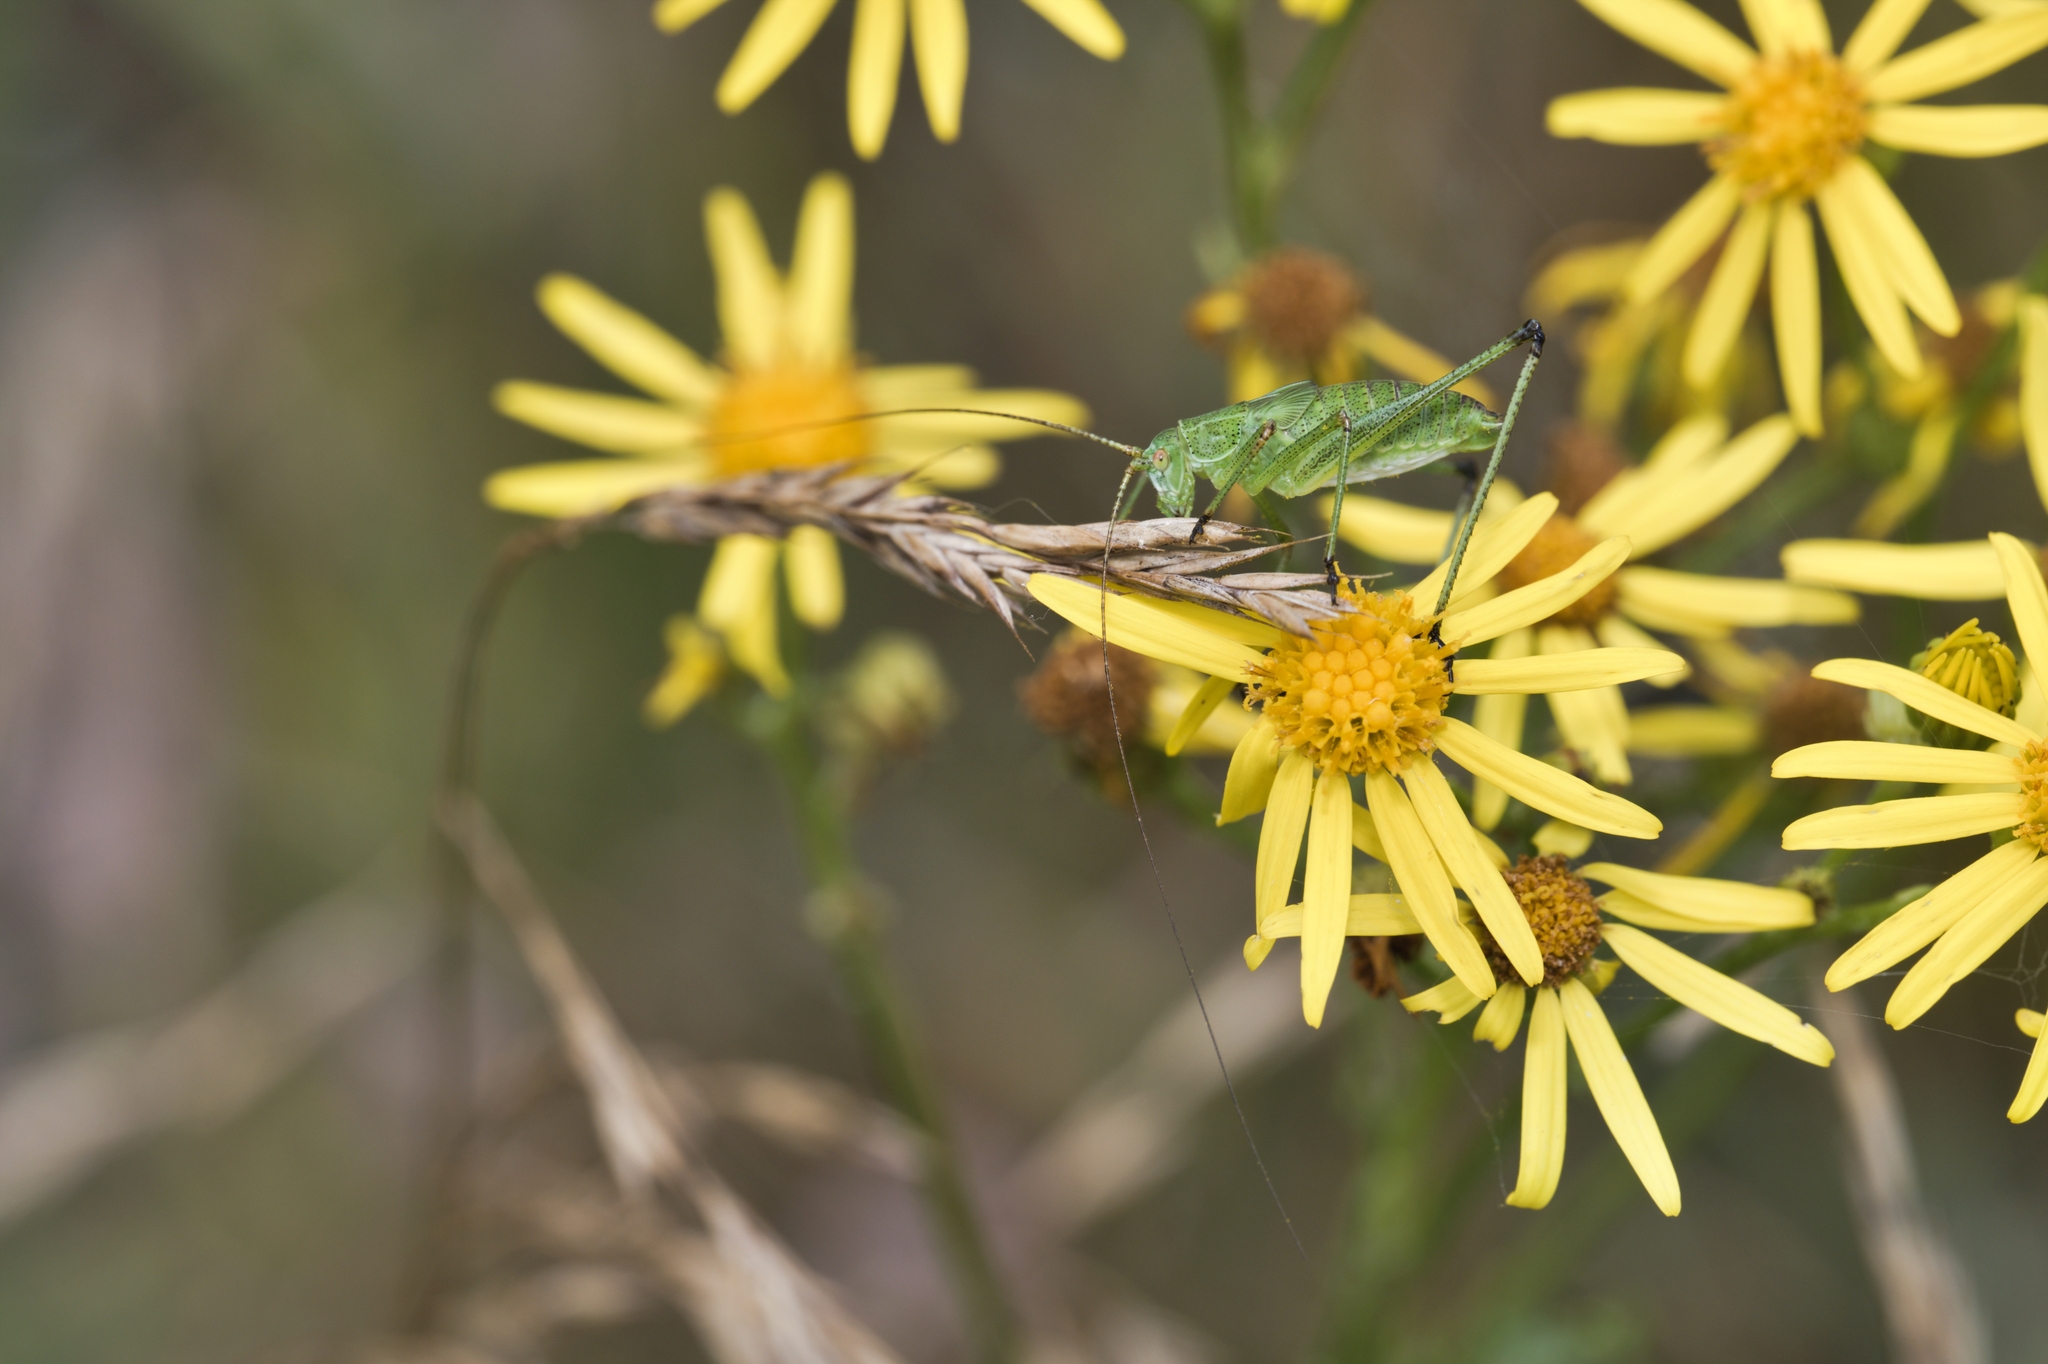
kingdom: Animalia
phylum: Arthropoda
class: Insecta
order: Orthoptera
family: Tettigoniidae
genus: Phaneroptera
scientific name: Phaneroptera falcata
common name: Sickle-bearing bush-cricket
